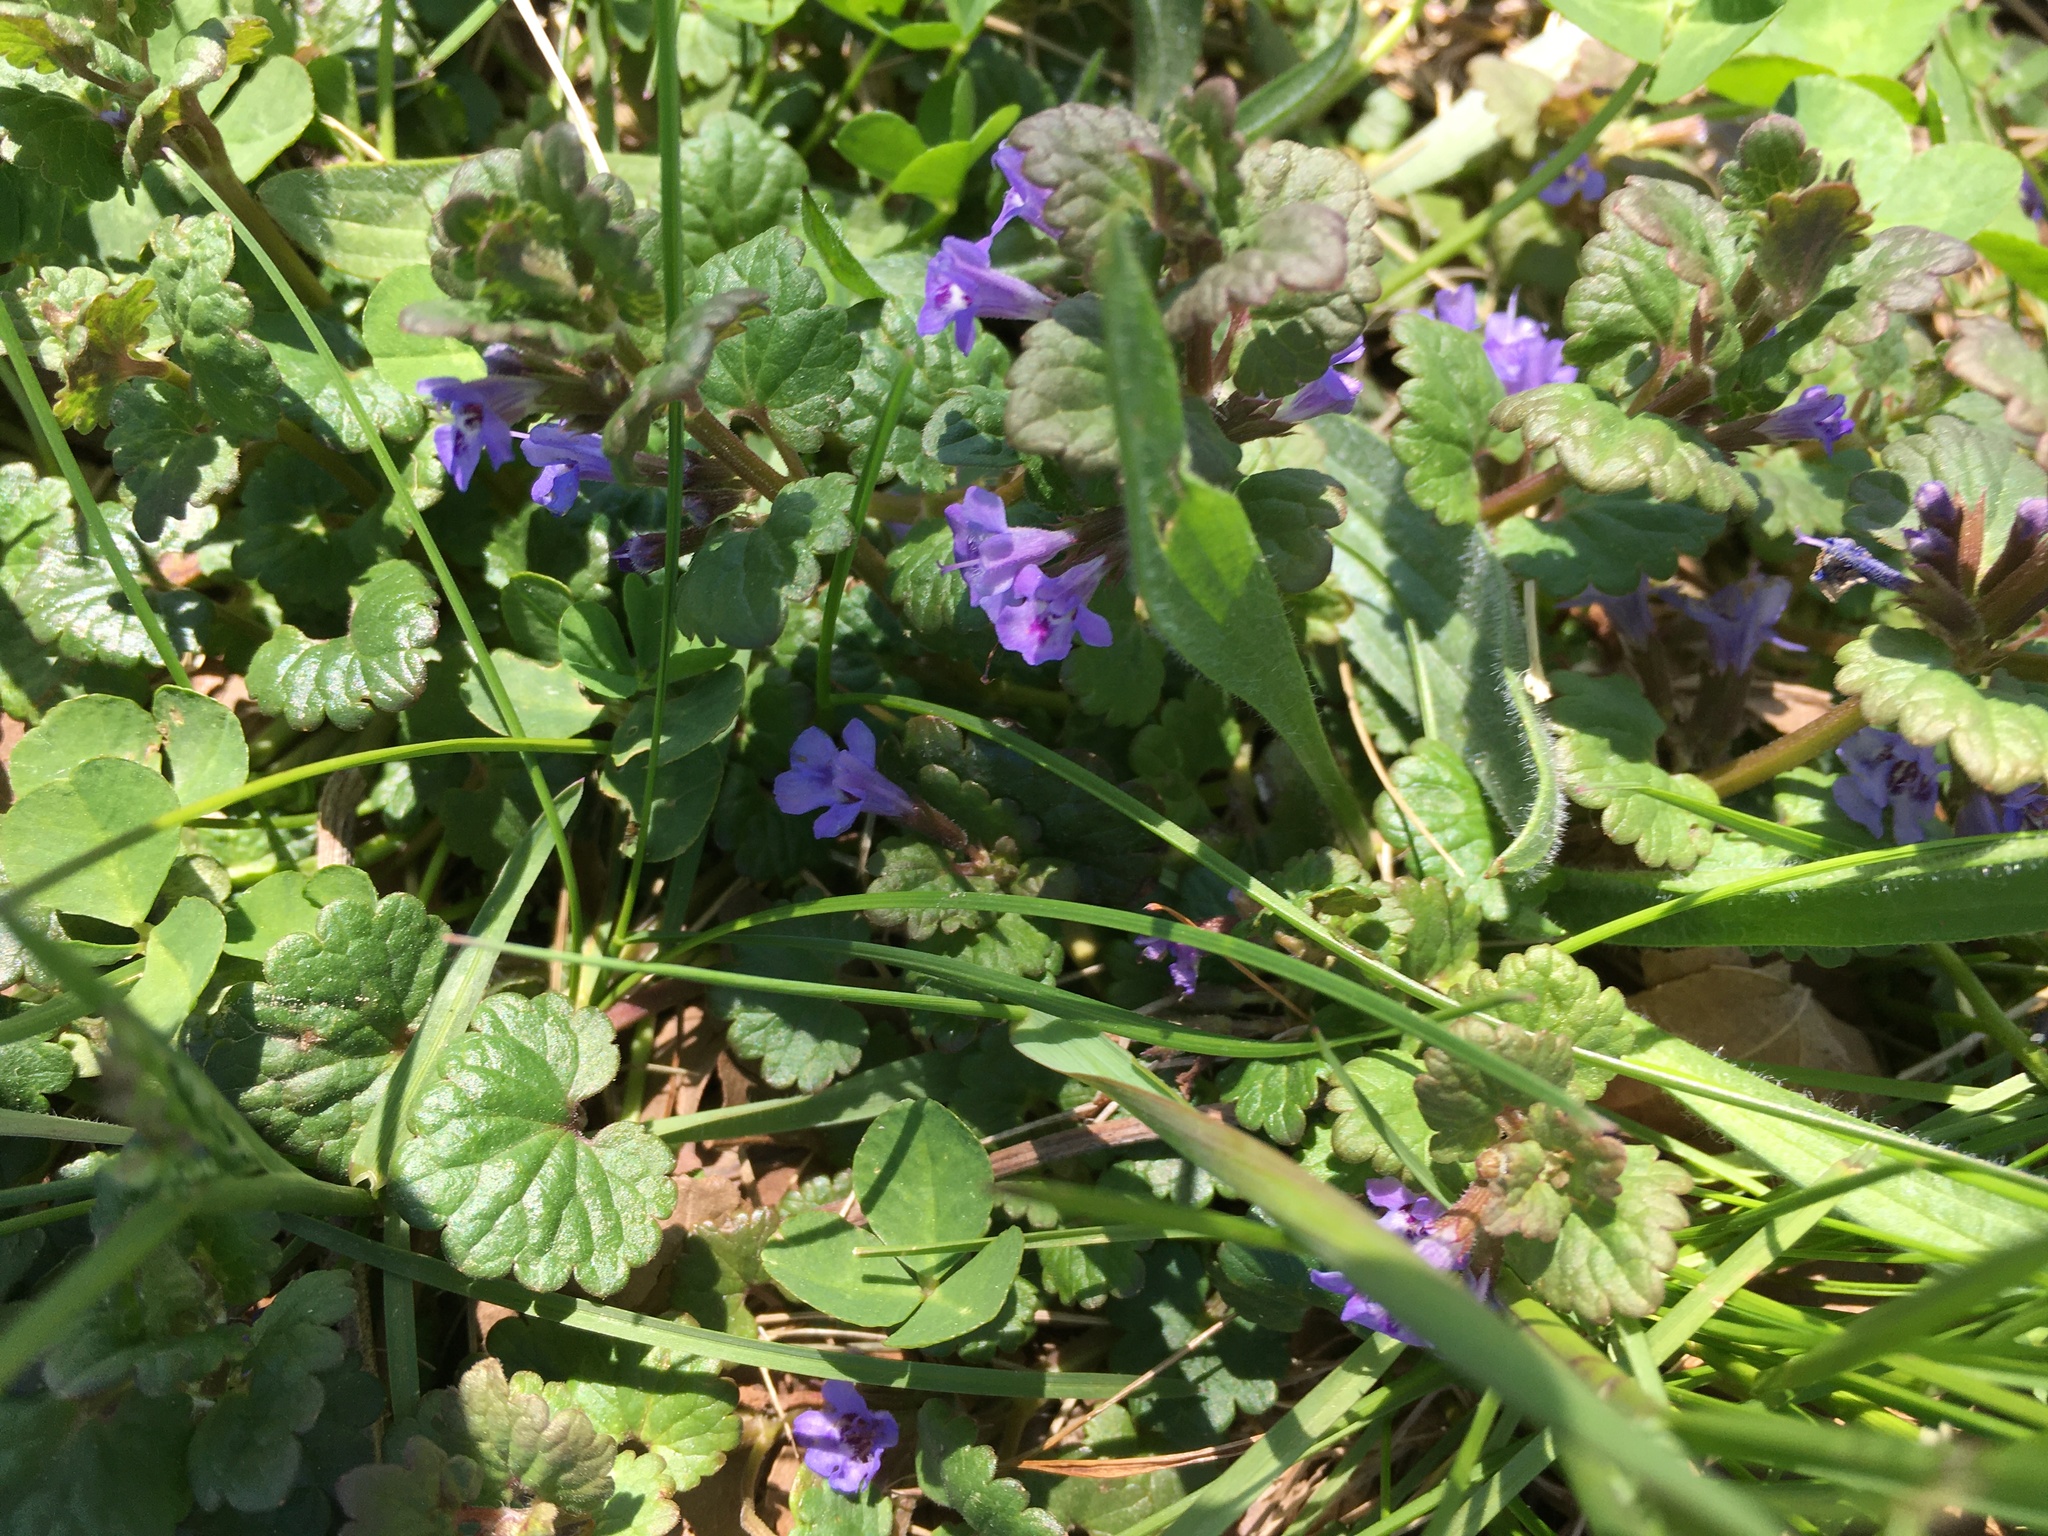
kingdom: Plantae
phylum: Tracheophyta
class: Magnoliopsida
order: Lamiales
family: Lamiaceae
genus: Glechoma
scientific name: Glechoma hederacea
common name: Ground ivy
